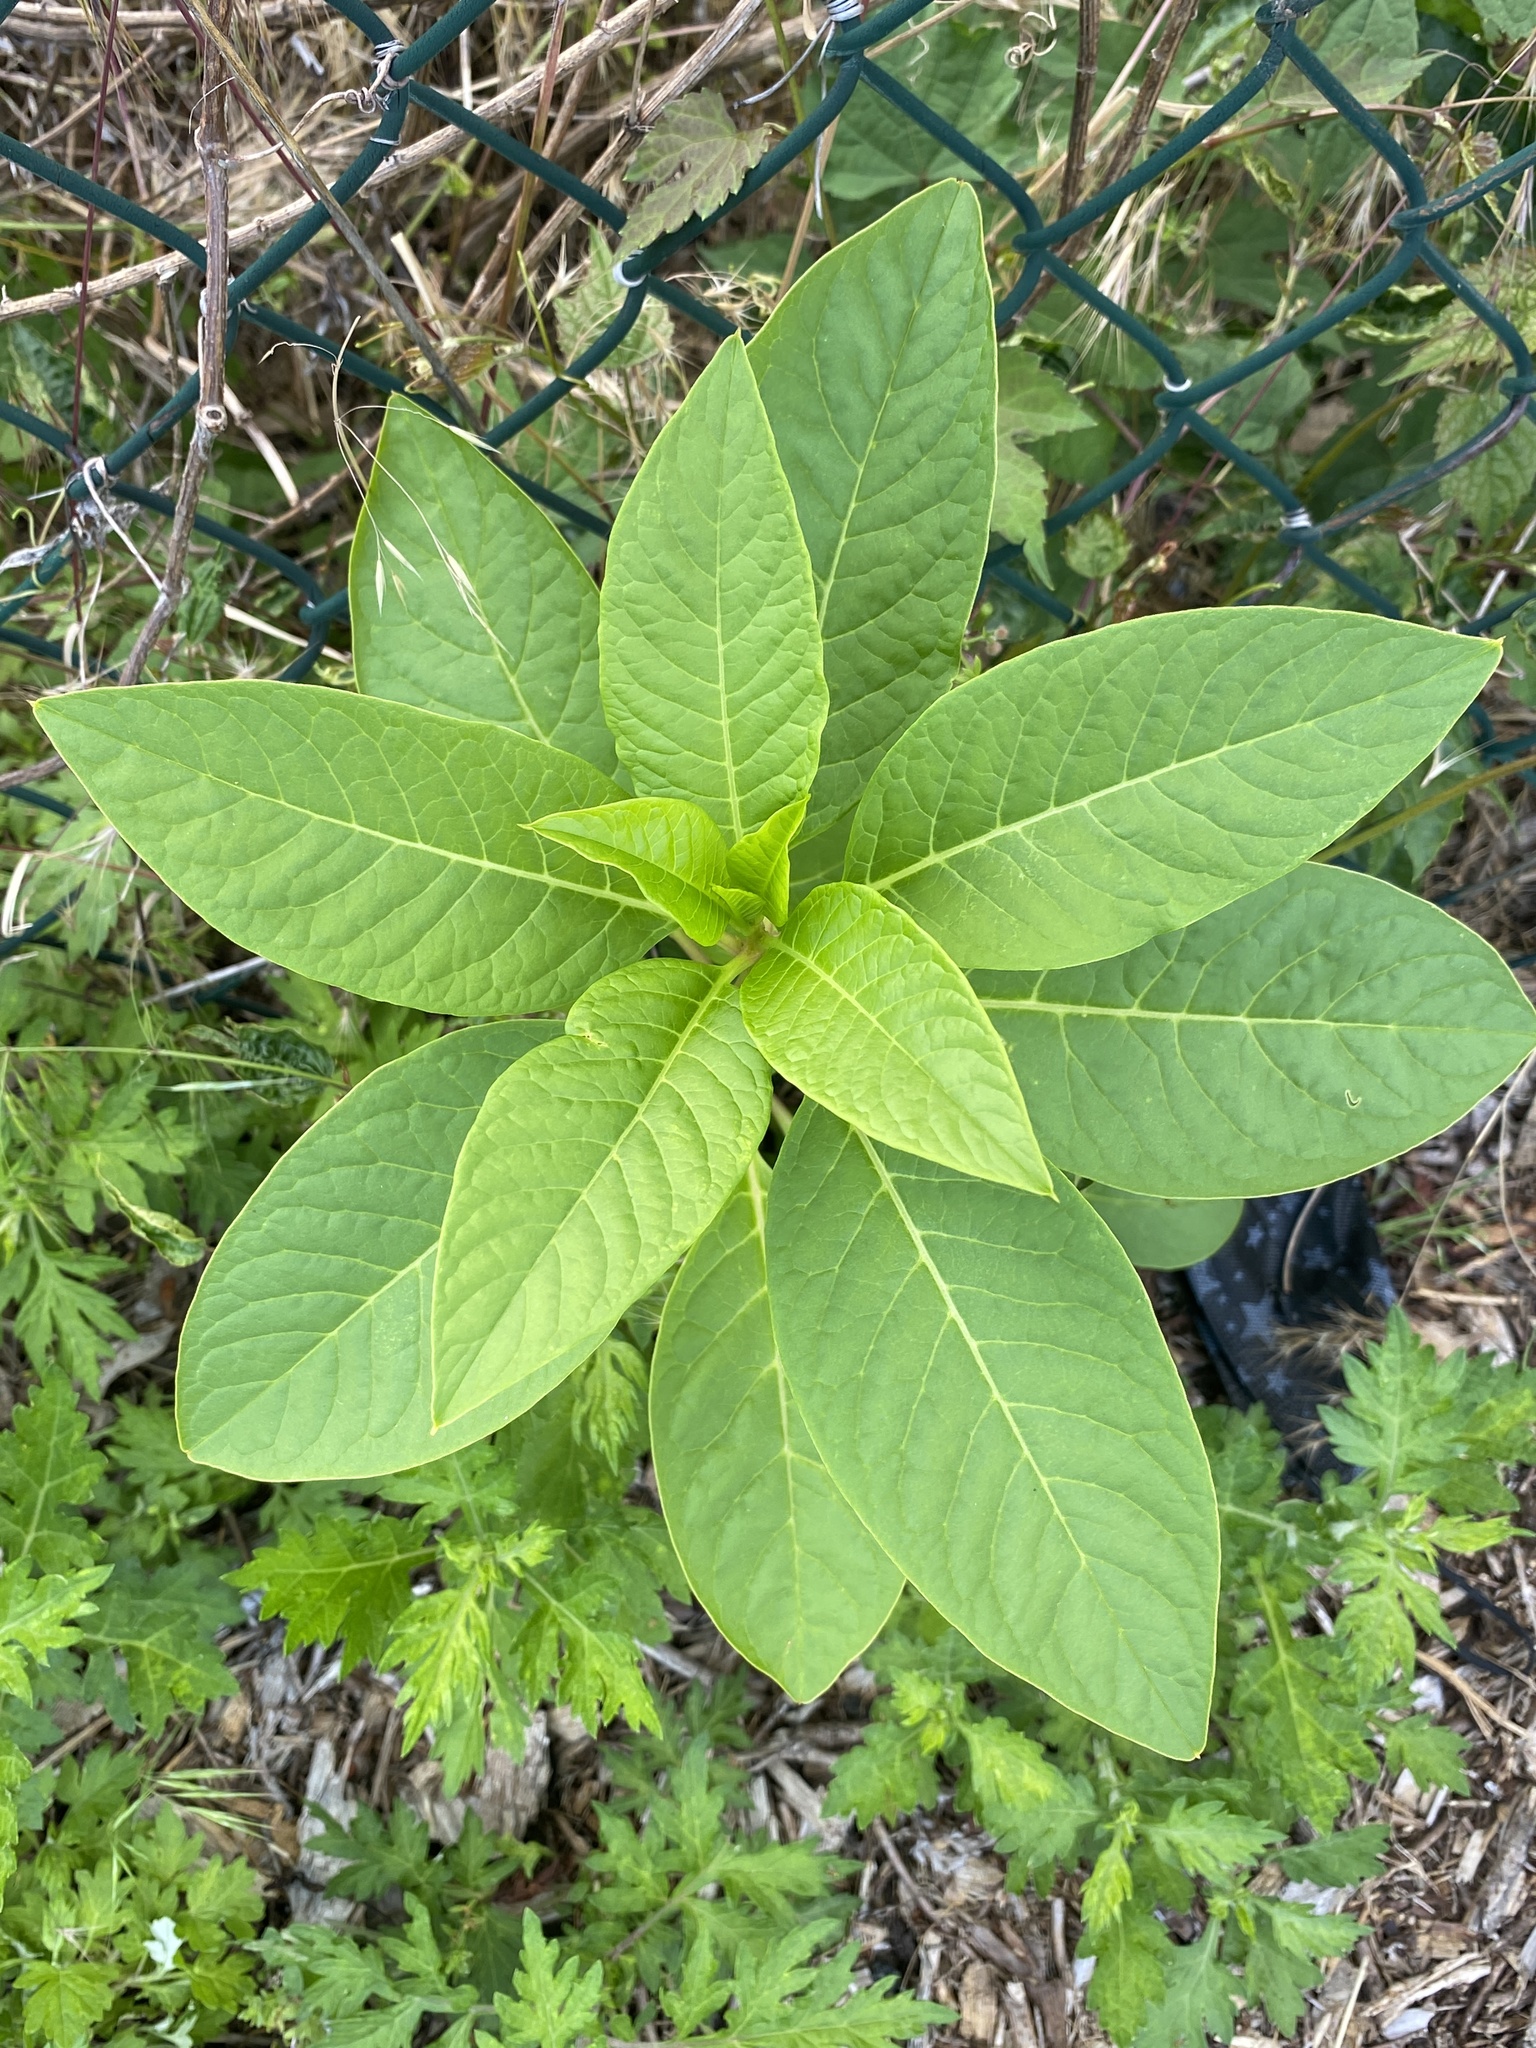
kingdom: Plantae
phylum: Tracheophyta
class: Magnoliopsida
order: Caryophyllales
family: Phytolaccaceae
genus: Phytolacca
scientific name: Phytolacca americana
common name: American pokeweed
